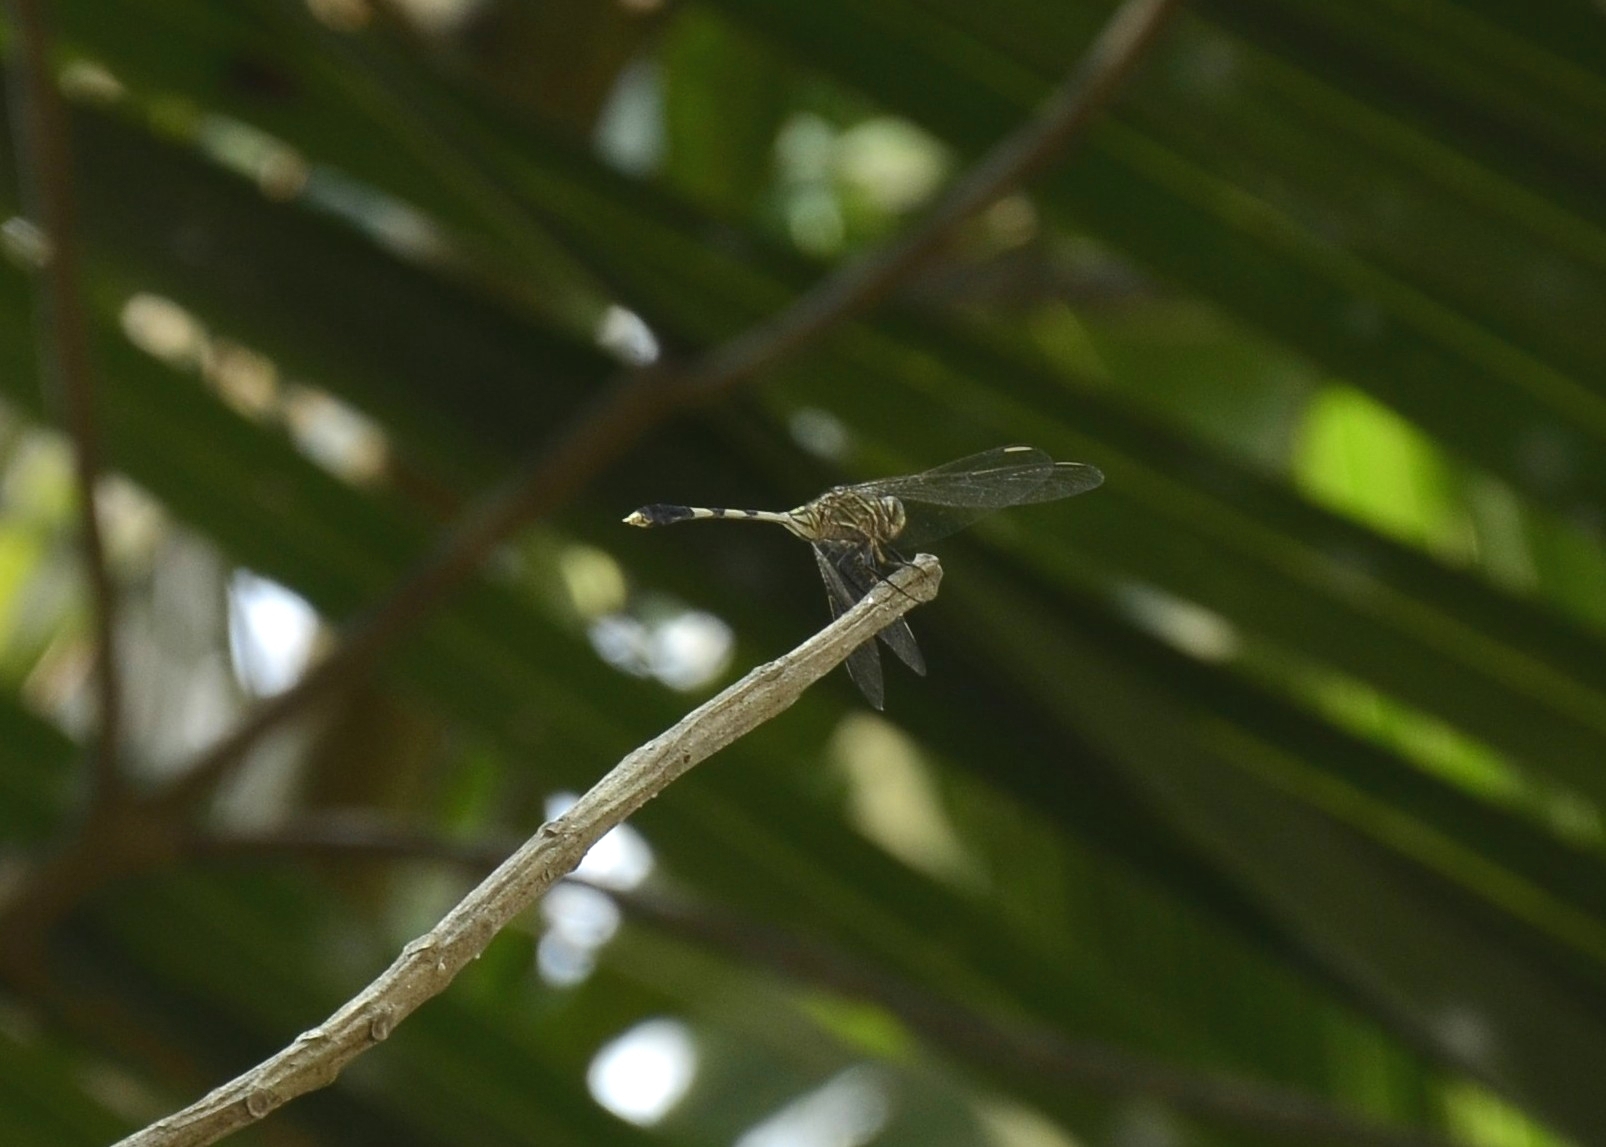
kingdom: Animalia
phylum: Arthropoda
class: Insecta
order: Odonata
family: Libellulidae
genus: Orthetrum
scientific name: Orthetrum sabina
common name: Slender skimmer
